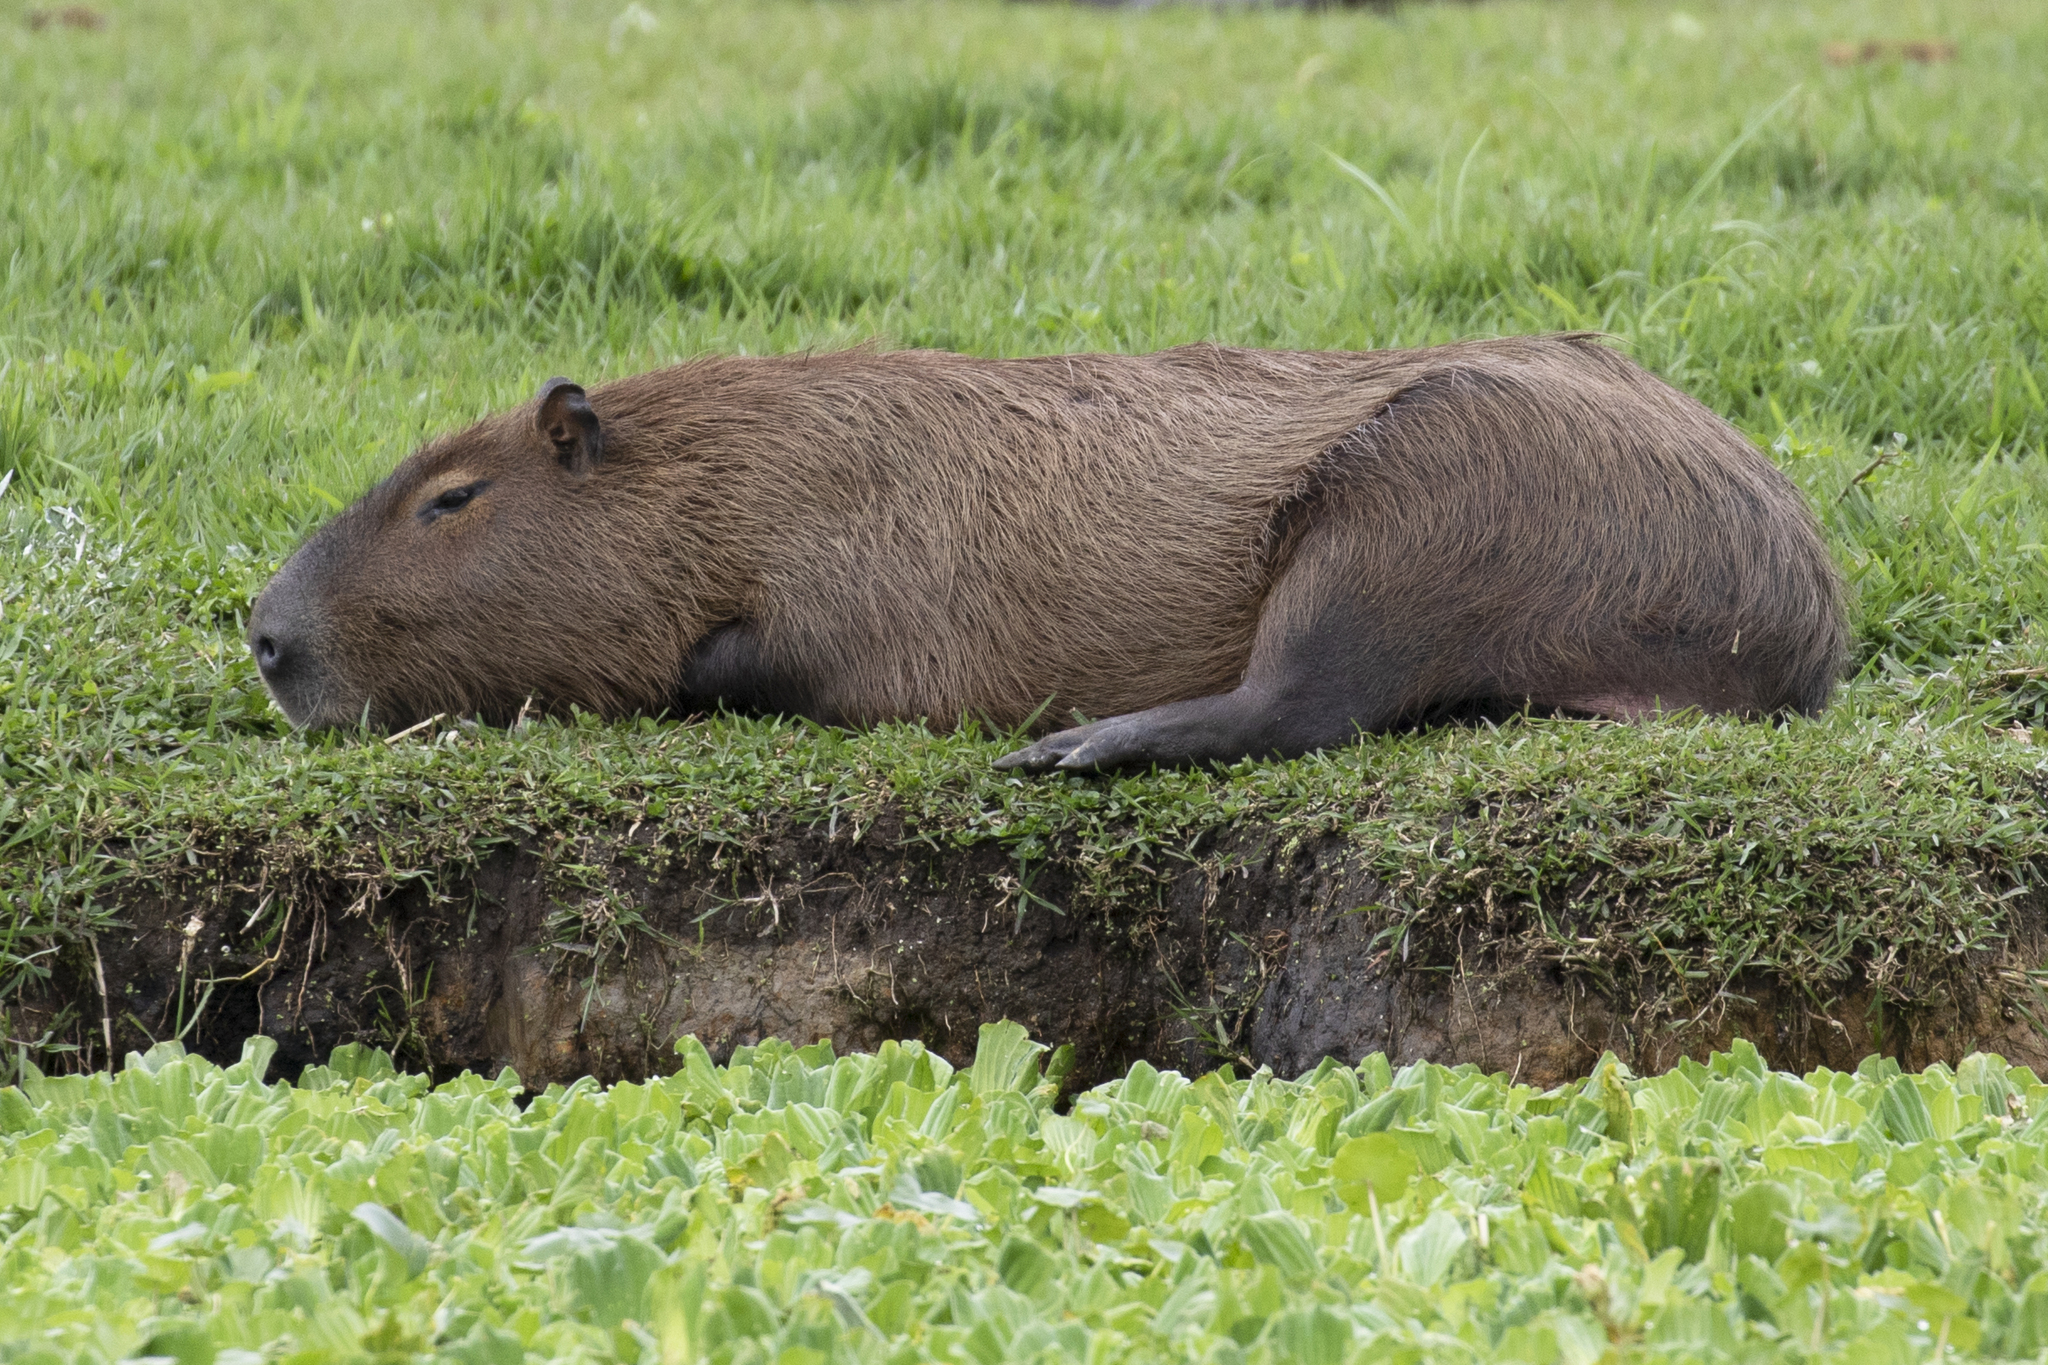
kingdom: Animalia
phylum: Chordata
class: Mammalia
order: Rodentia
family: Caviidae
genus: Hydrochoerus
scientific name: Hydrochoerus hydrochaeris
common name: Capybara
